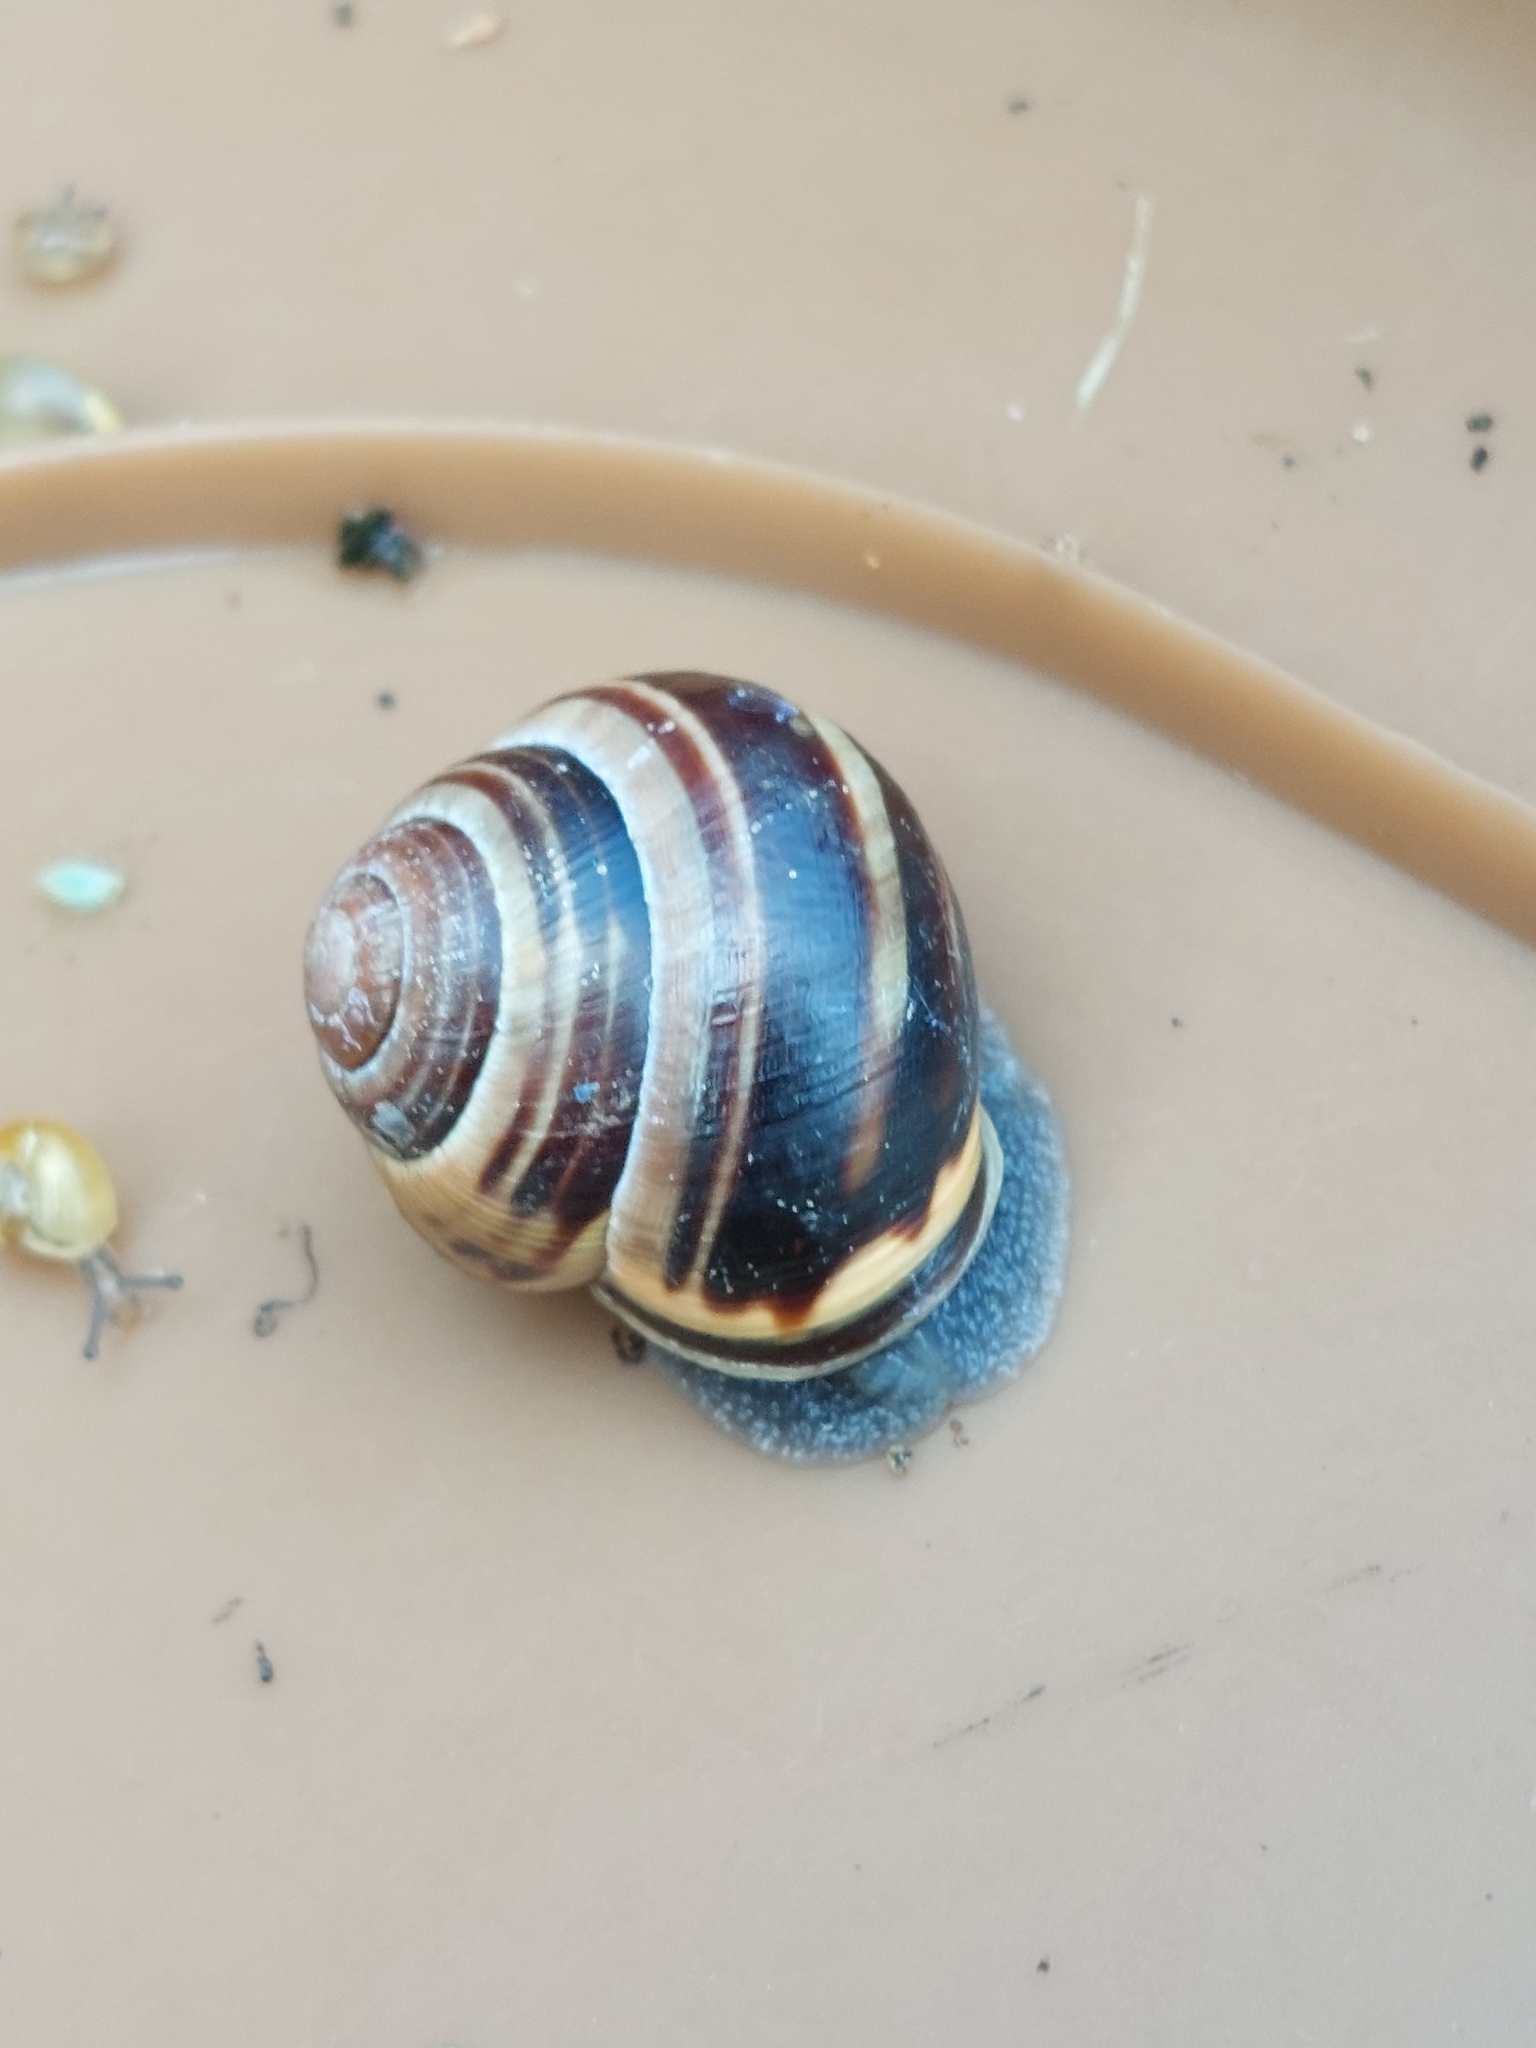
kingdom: Animalia
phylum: Mollusca
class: Gastropoda
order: Stylommatophora
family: Helicidae
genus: Cepaea
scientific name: Cepaea nemoralis
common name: Grovesnail
